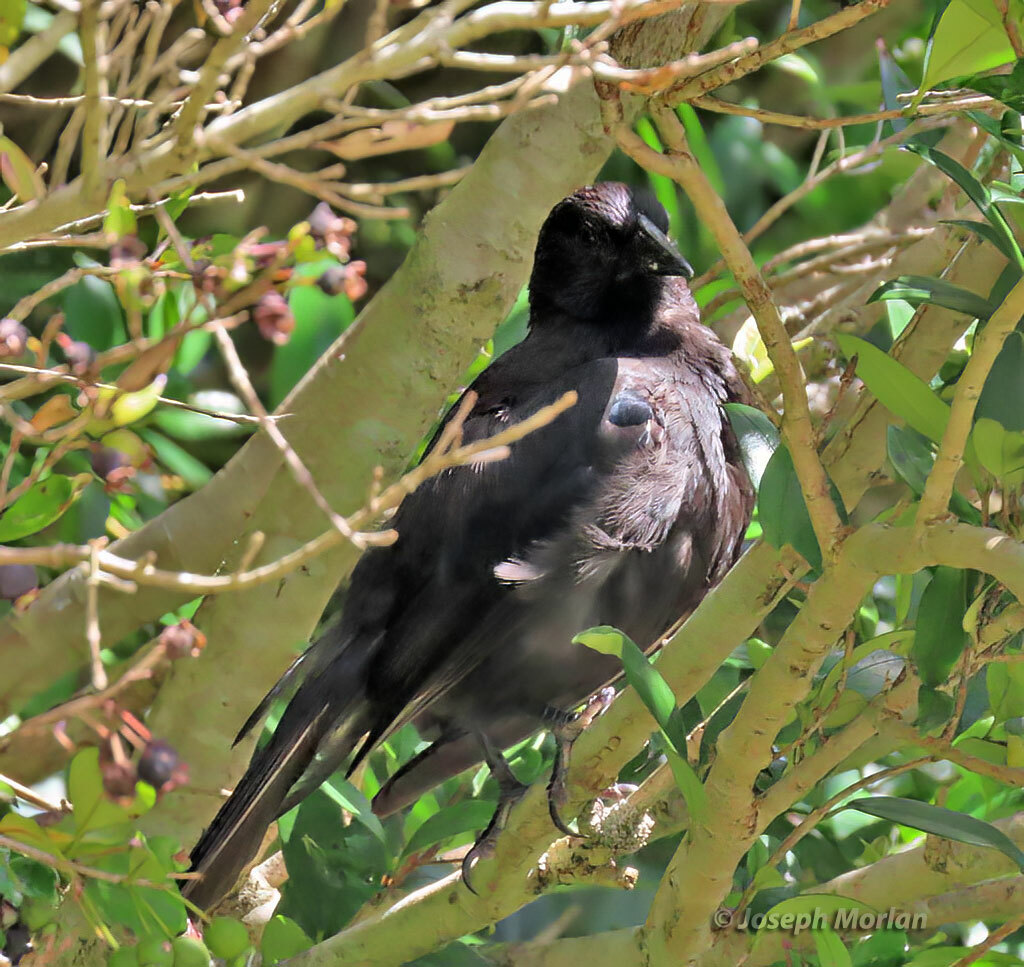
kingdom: Animalia
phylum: Chordata
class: Aves
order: Passeriformes
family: Icteridae
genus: Curaeus
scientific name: Curaeus curaeus
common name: Austral blackbird
